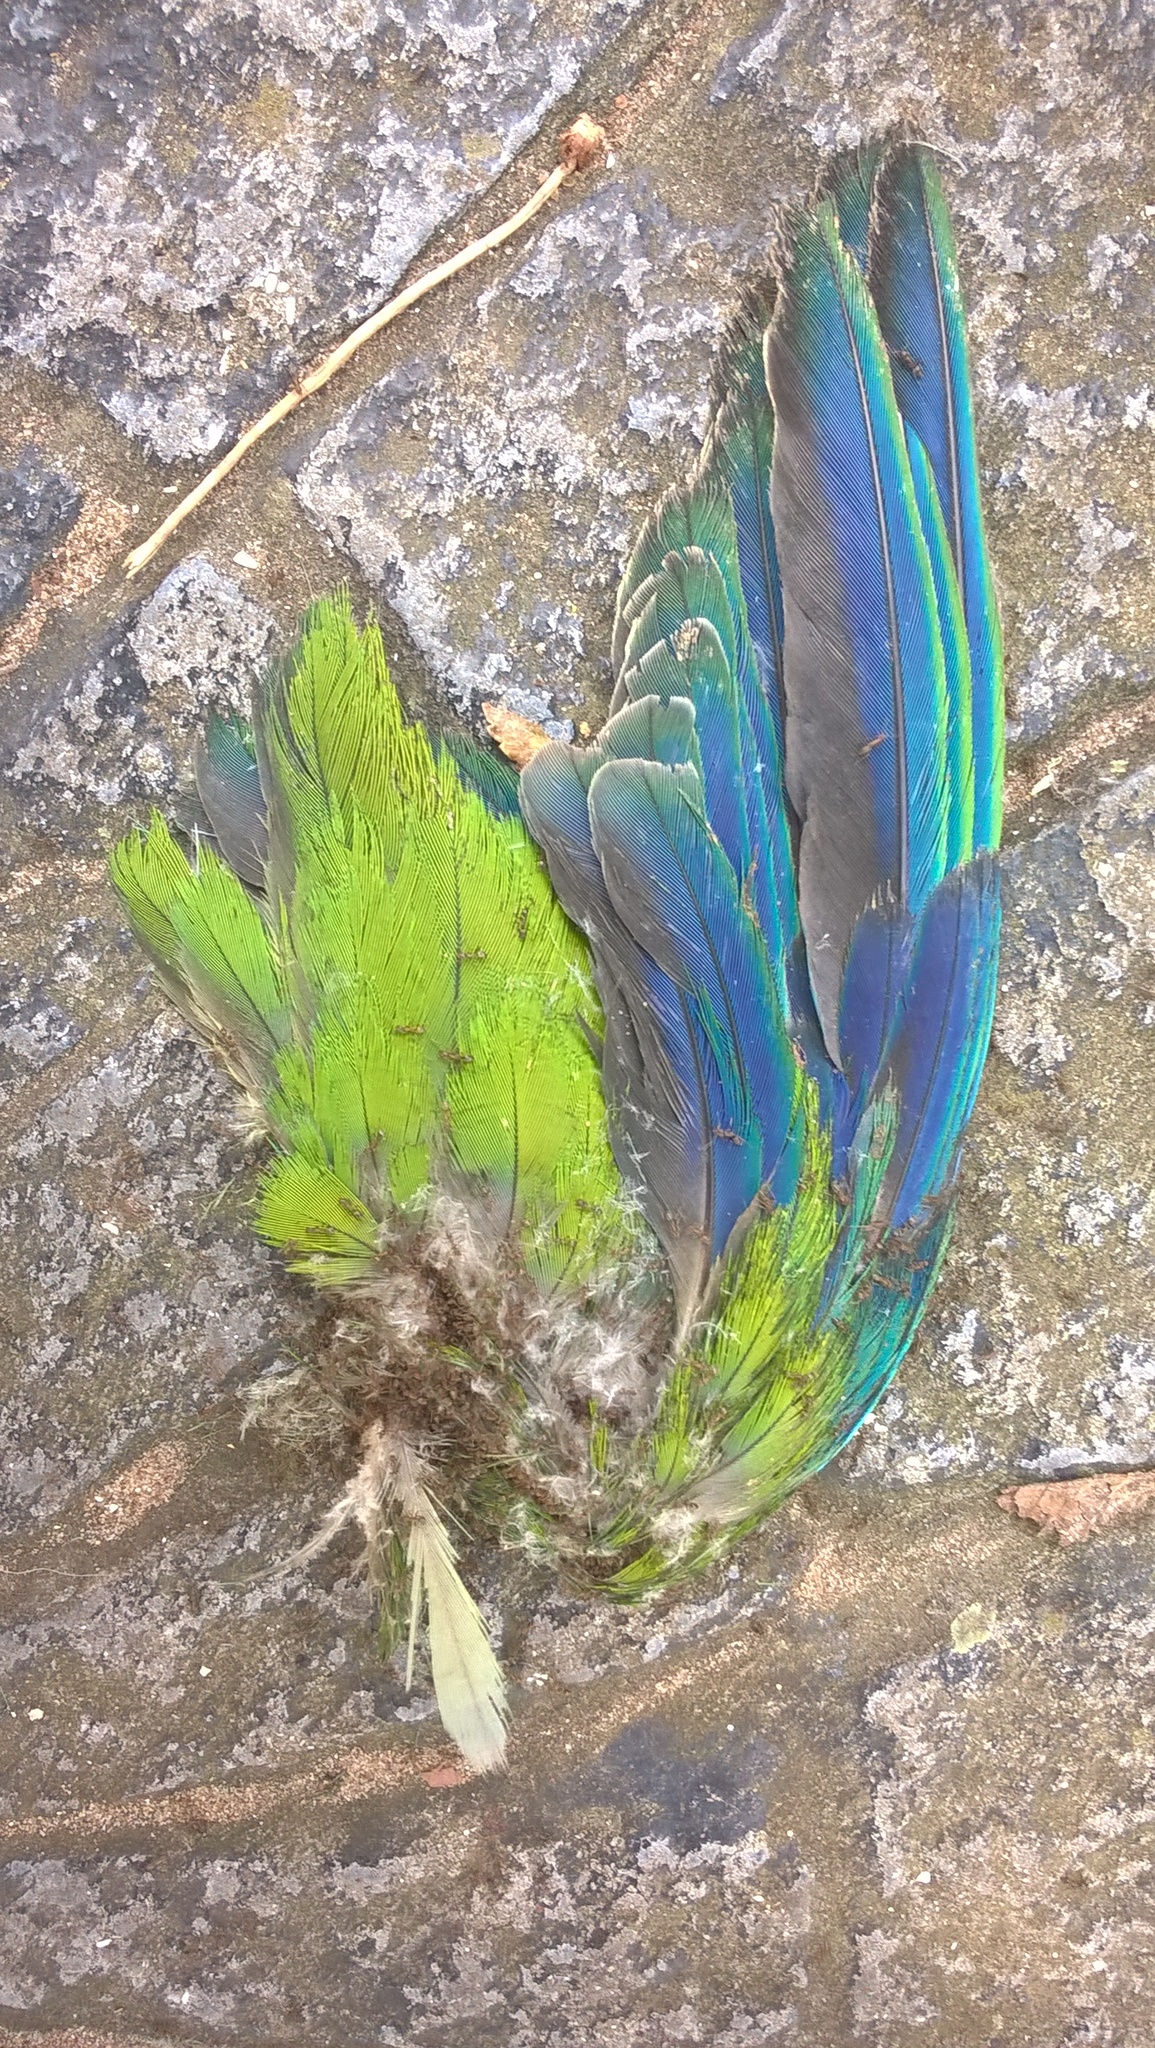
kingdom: Animalia
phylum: Chordata
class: Aves
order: Psittaciformes
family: Psittacidae
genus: Myiopsitta
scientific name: Myiopsitta monachus
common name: Monk parakeet
